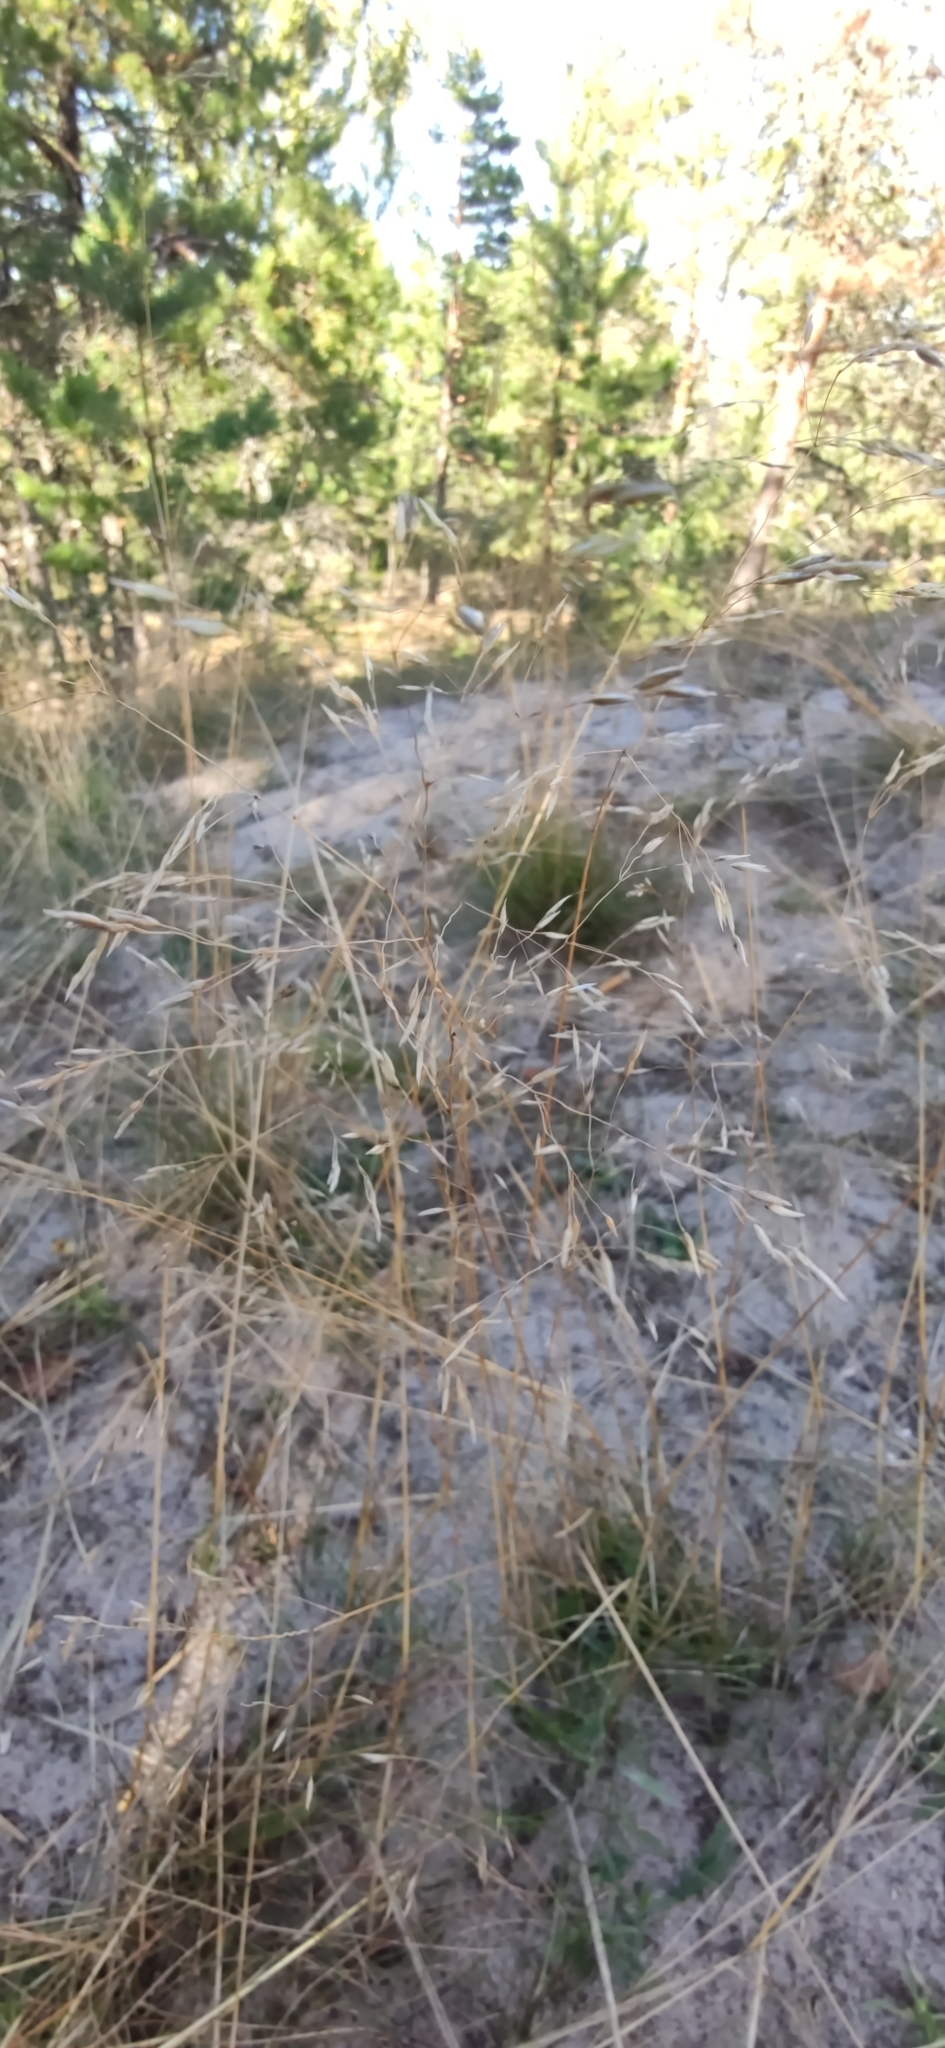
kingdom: Plantae
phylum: Tracheophyta
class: Liliopsida
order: Poales
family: Poaceae
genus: Avenella
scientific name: Avenella flexuosa
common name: Wavy hairgrass
